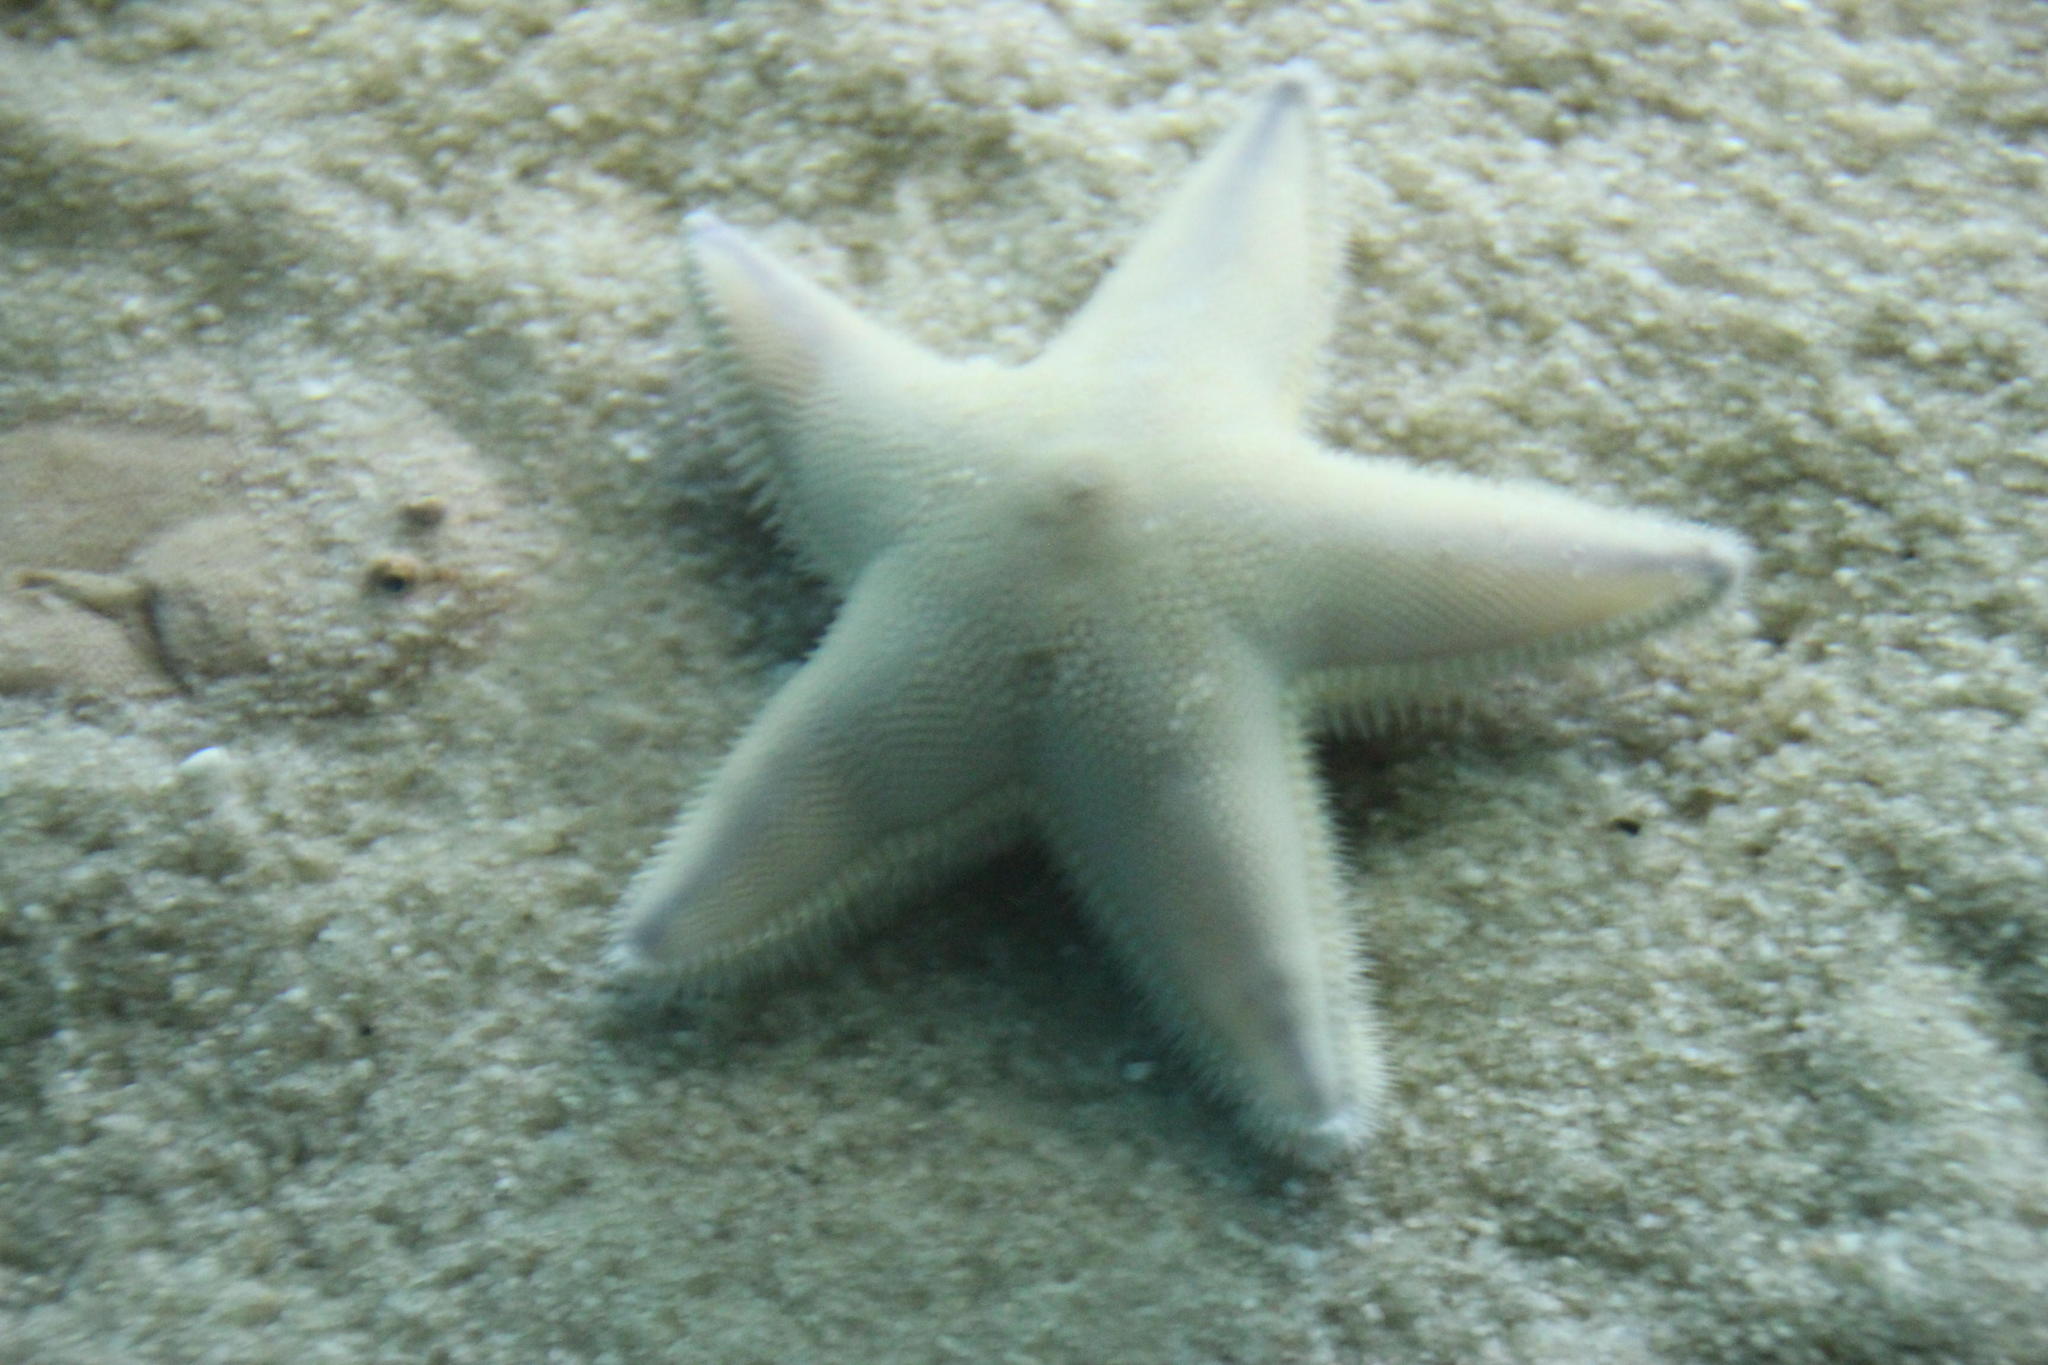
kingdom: Animalia
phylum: Echinodermata
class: Asteroidea
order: Paxillosida
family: Astropectinidae
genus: Astropecten
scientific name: Astropecten irregularis
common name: Sand star
